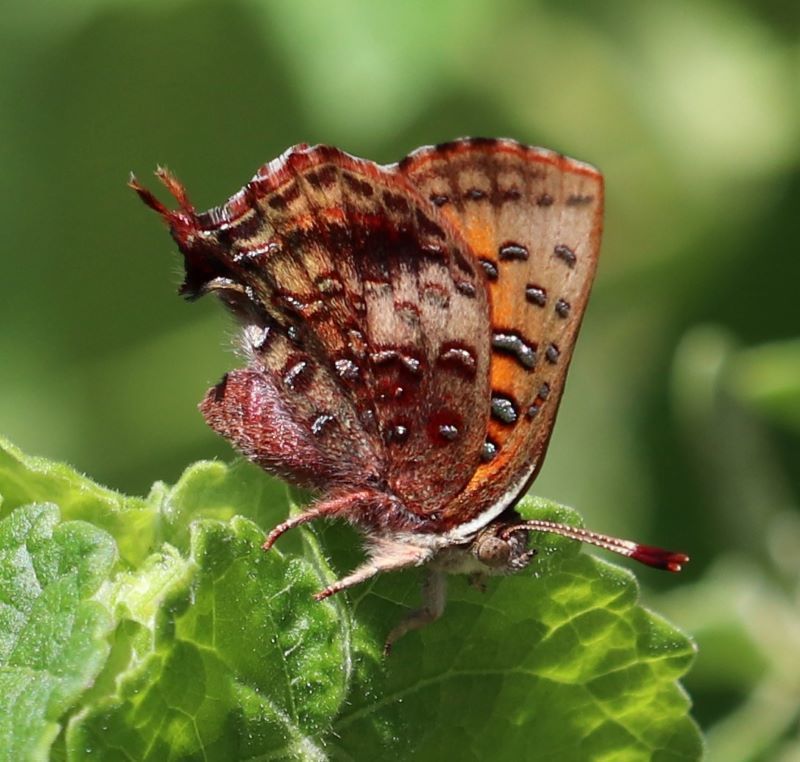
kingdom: Animalia
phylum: Arthropoda
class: Insecta
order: Lepidoptera
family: Lycaenidae
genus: Axiocerses
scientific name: Axiocerses perion
